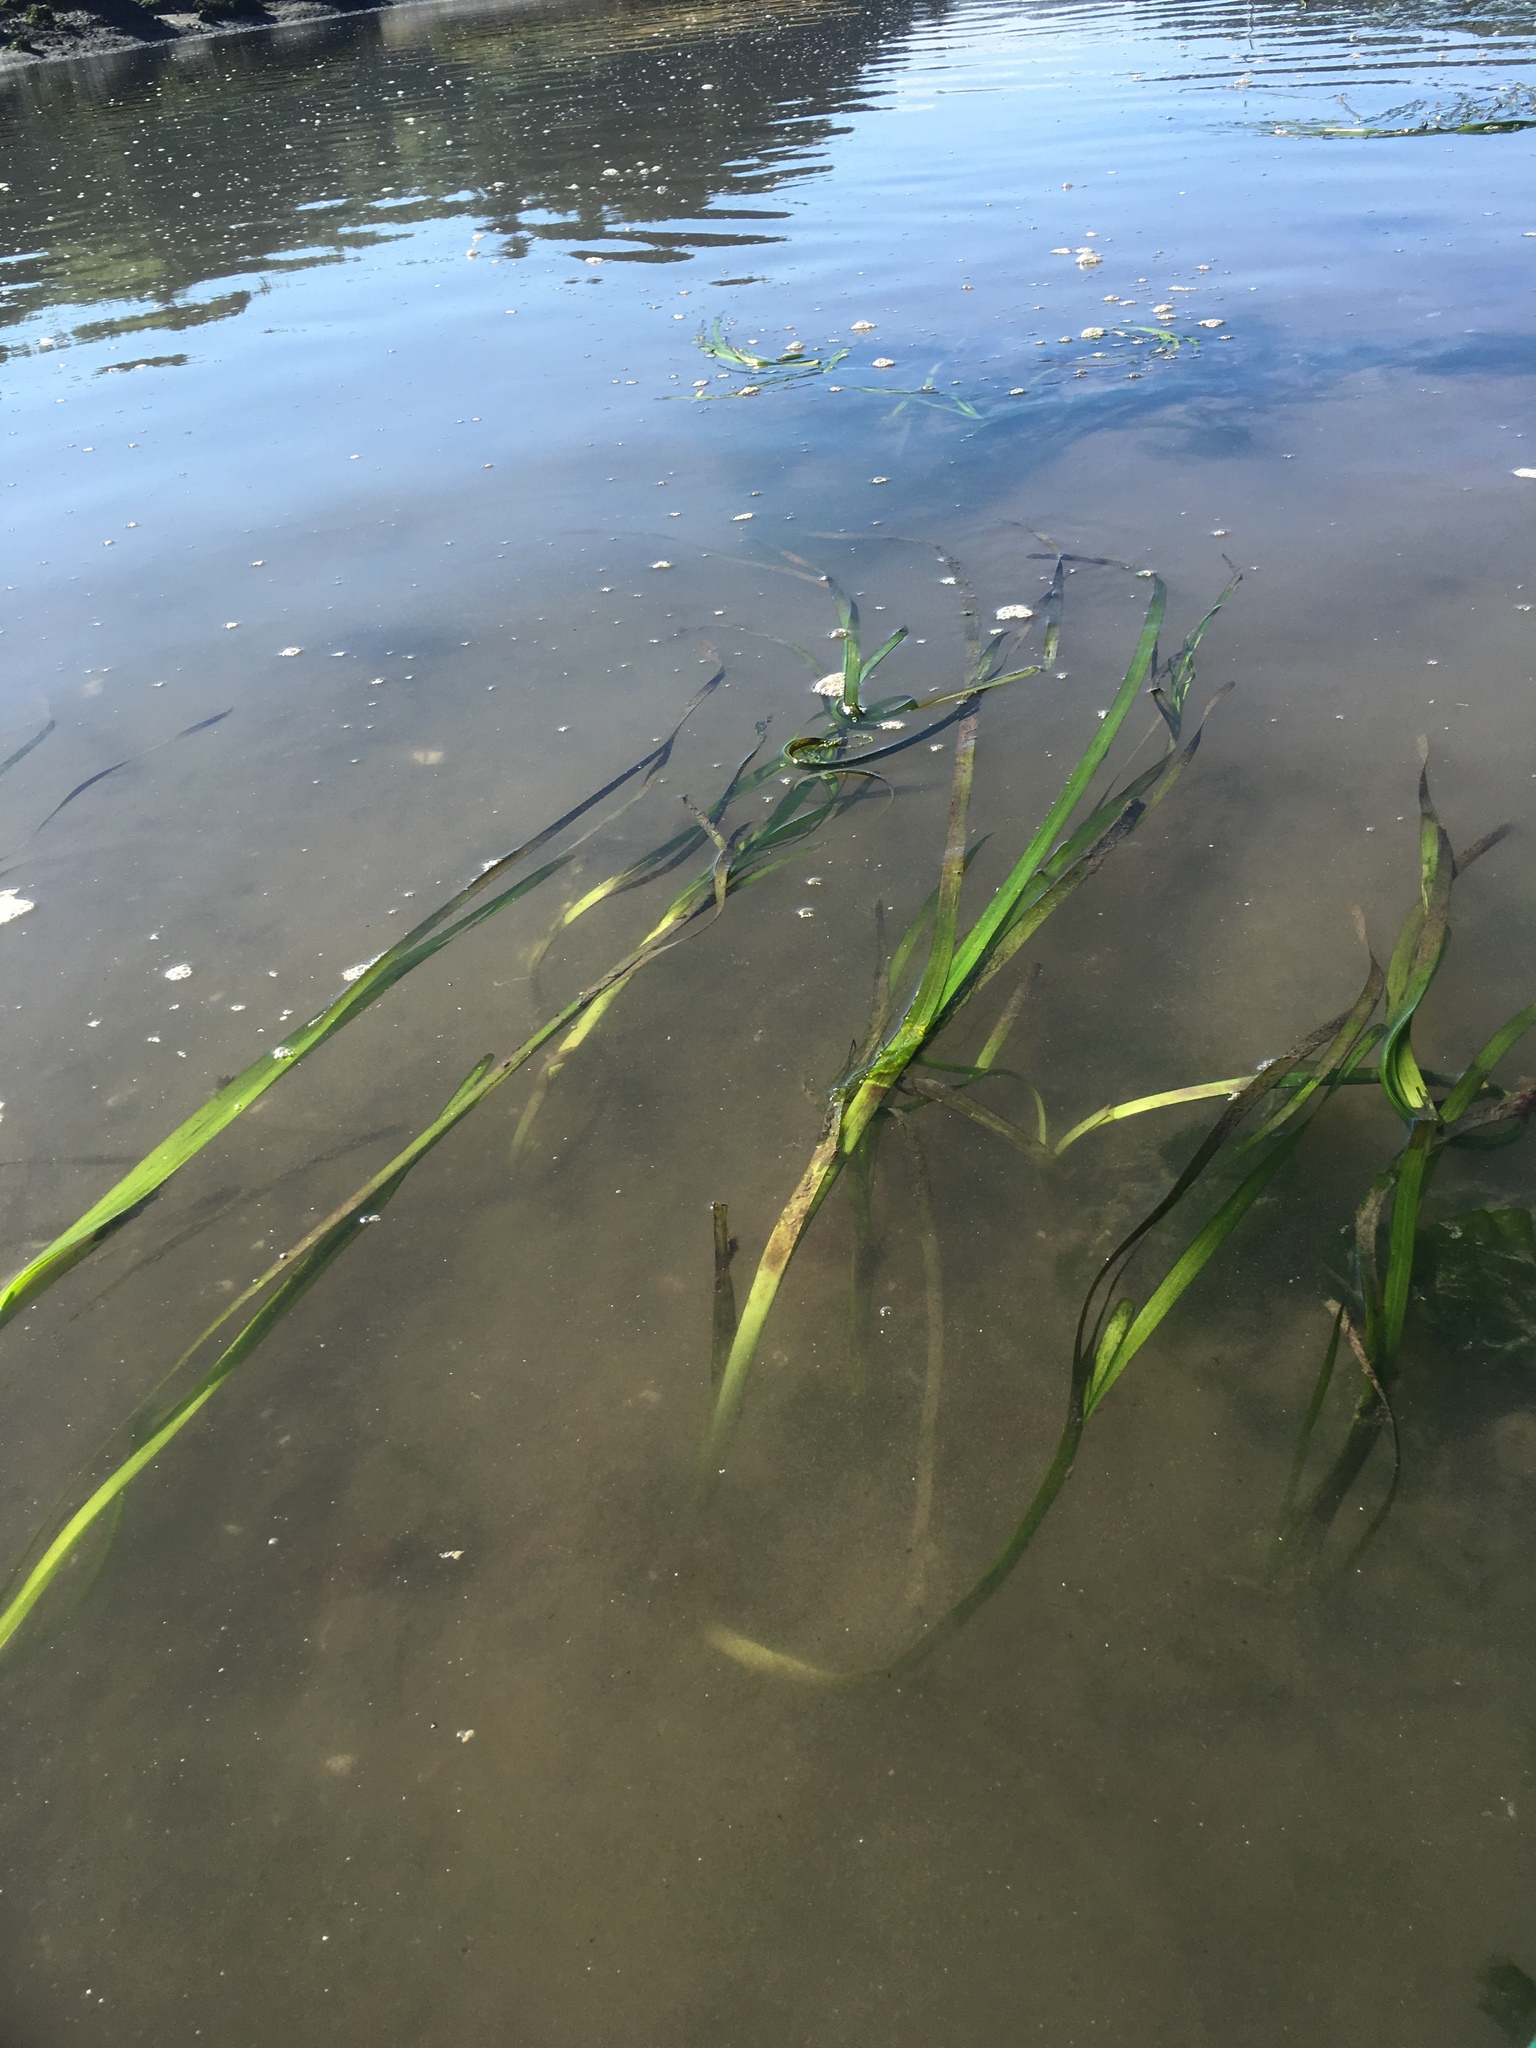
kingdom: Plantae
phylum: Tracheophyta
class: Liliopsida
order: Alismatales
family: Zosteraceae
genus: Zostera
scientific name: Zostera marina
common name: Eelgrass
